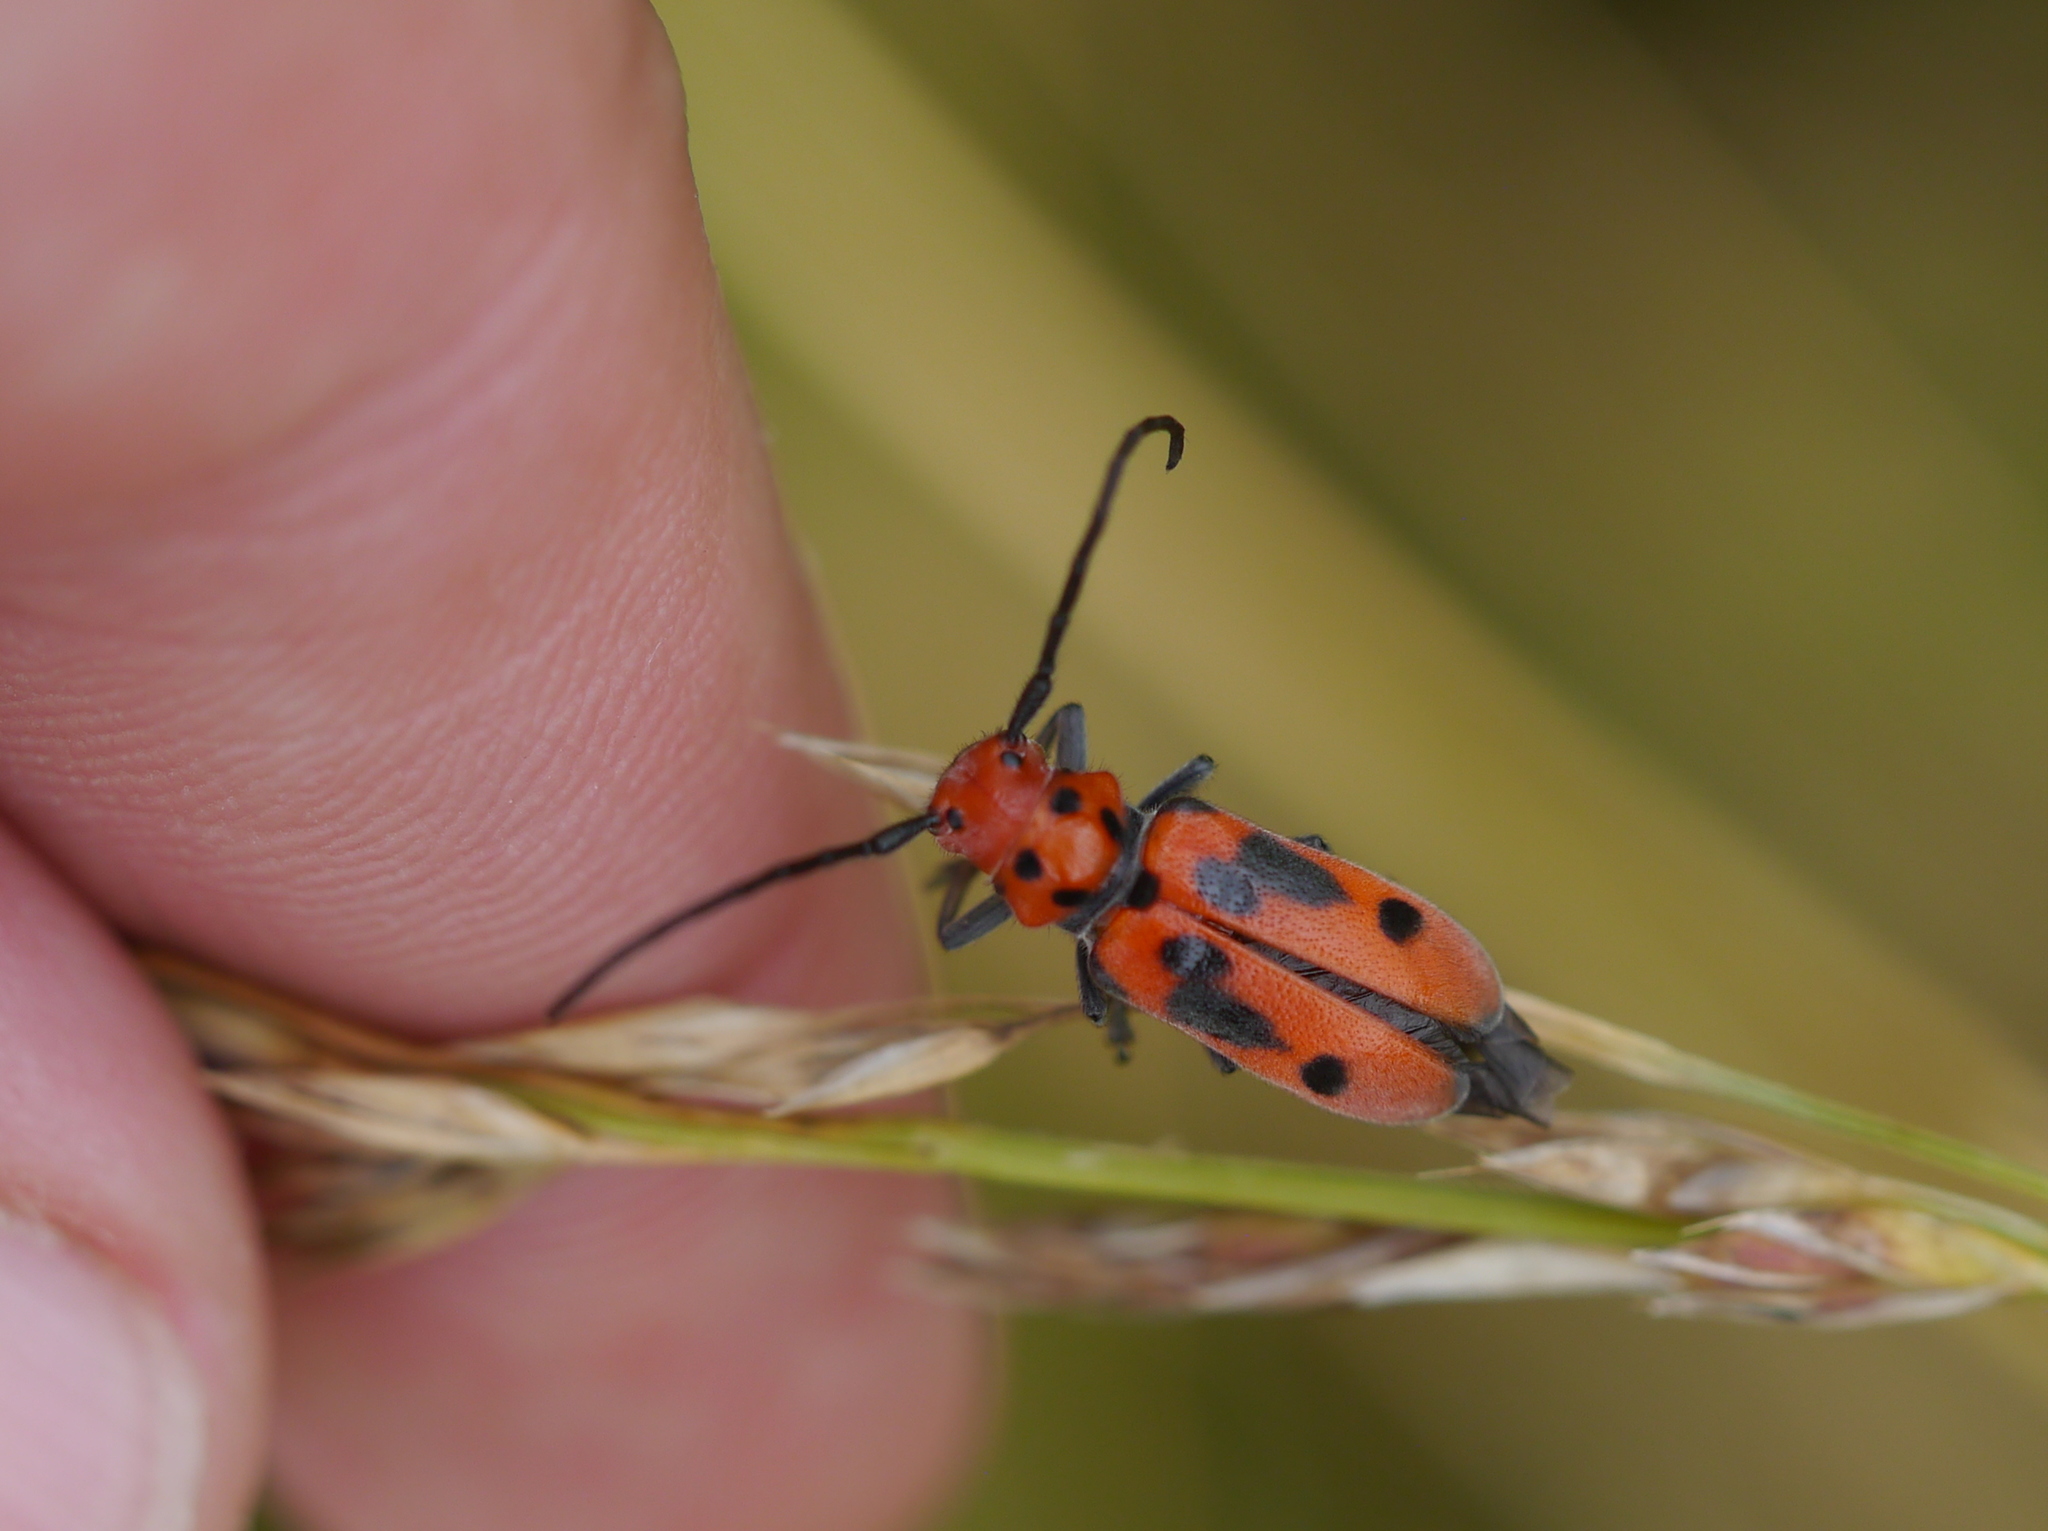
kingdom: Animalia
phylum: Arthropoda
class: Insecta
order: Coleoptera
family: Cerambycidae
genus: Tetraopes
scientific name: Tetraopes tetrophthalmus
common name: Red milkweed beetle
